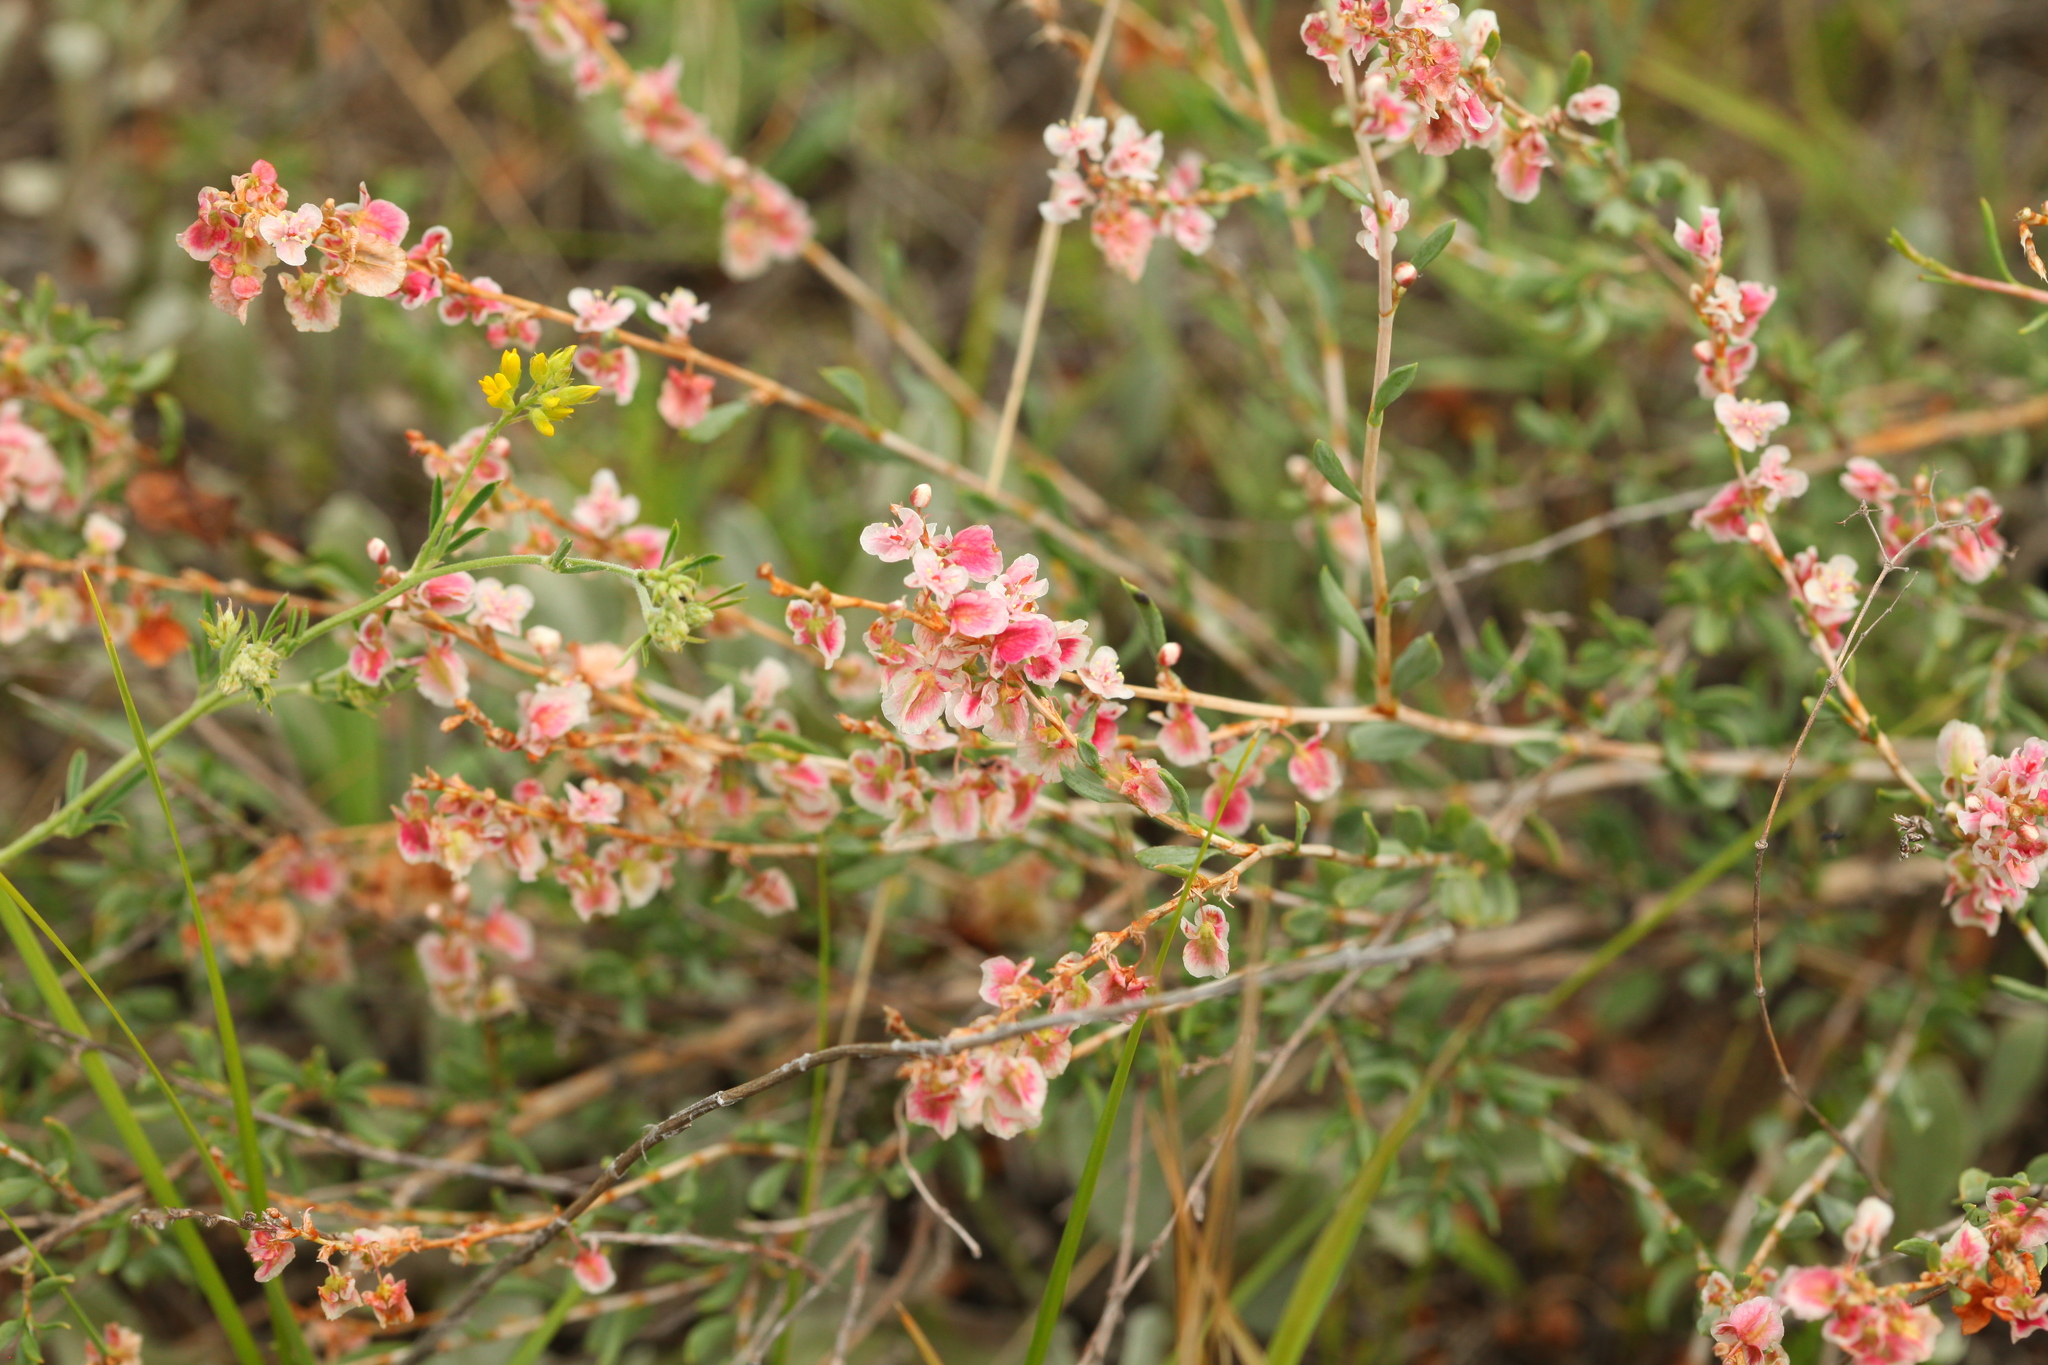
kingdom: Plantae
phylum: Tracheophyta
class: Magnoliopsida
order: Caryophyllales
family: Polygonaceae
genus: Atraphaxis
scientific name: Atraphaxis frutescens
